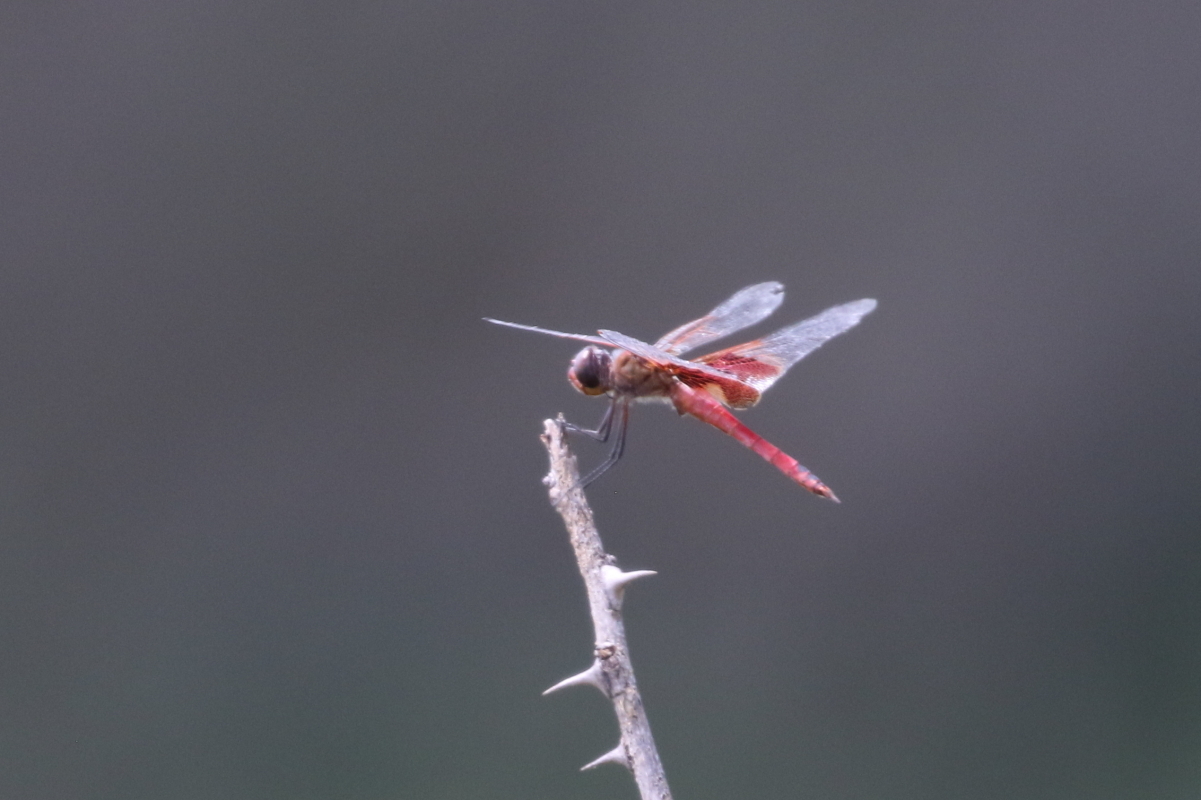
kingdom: Animalia
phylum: Arthropoda
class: Insecta
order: Odonata
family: Libellulidae
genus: Tramea
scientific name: Tramea onusta
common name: Red saddlebags
